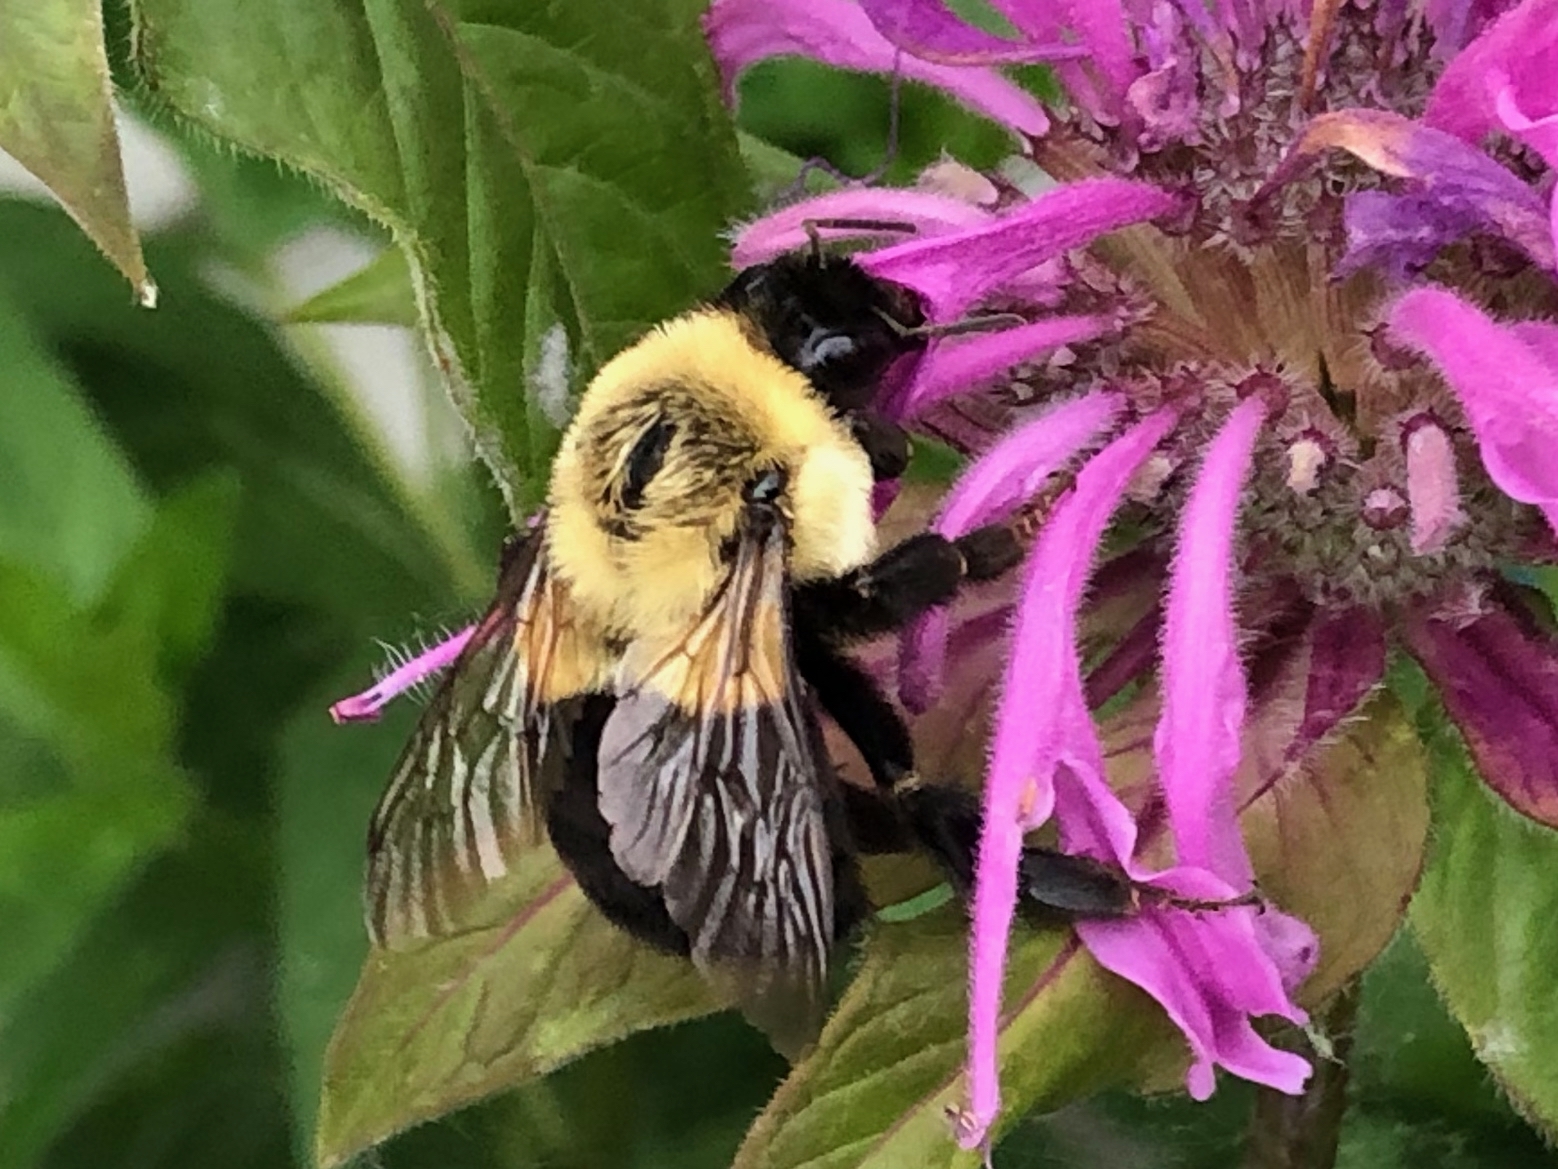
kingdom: Animalia
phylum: Arthropoda
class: Insecta
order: Hymenoptera
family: Apidae
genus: Bombus
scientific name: Bombus impatiens
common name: Common eastern bumble bee
